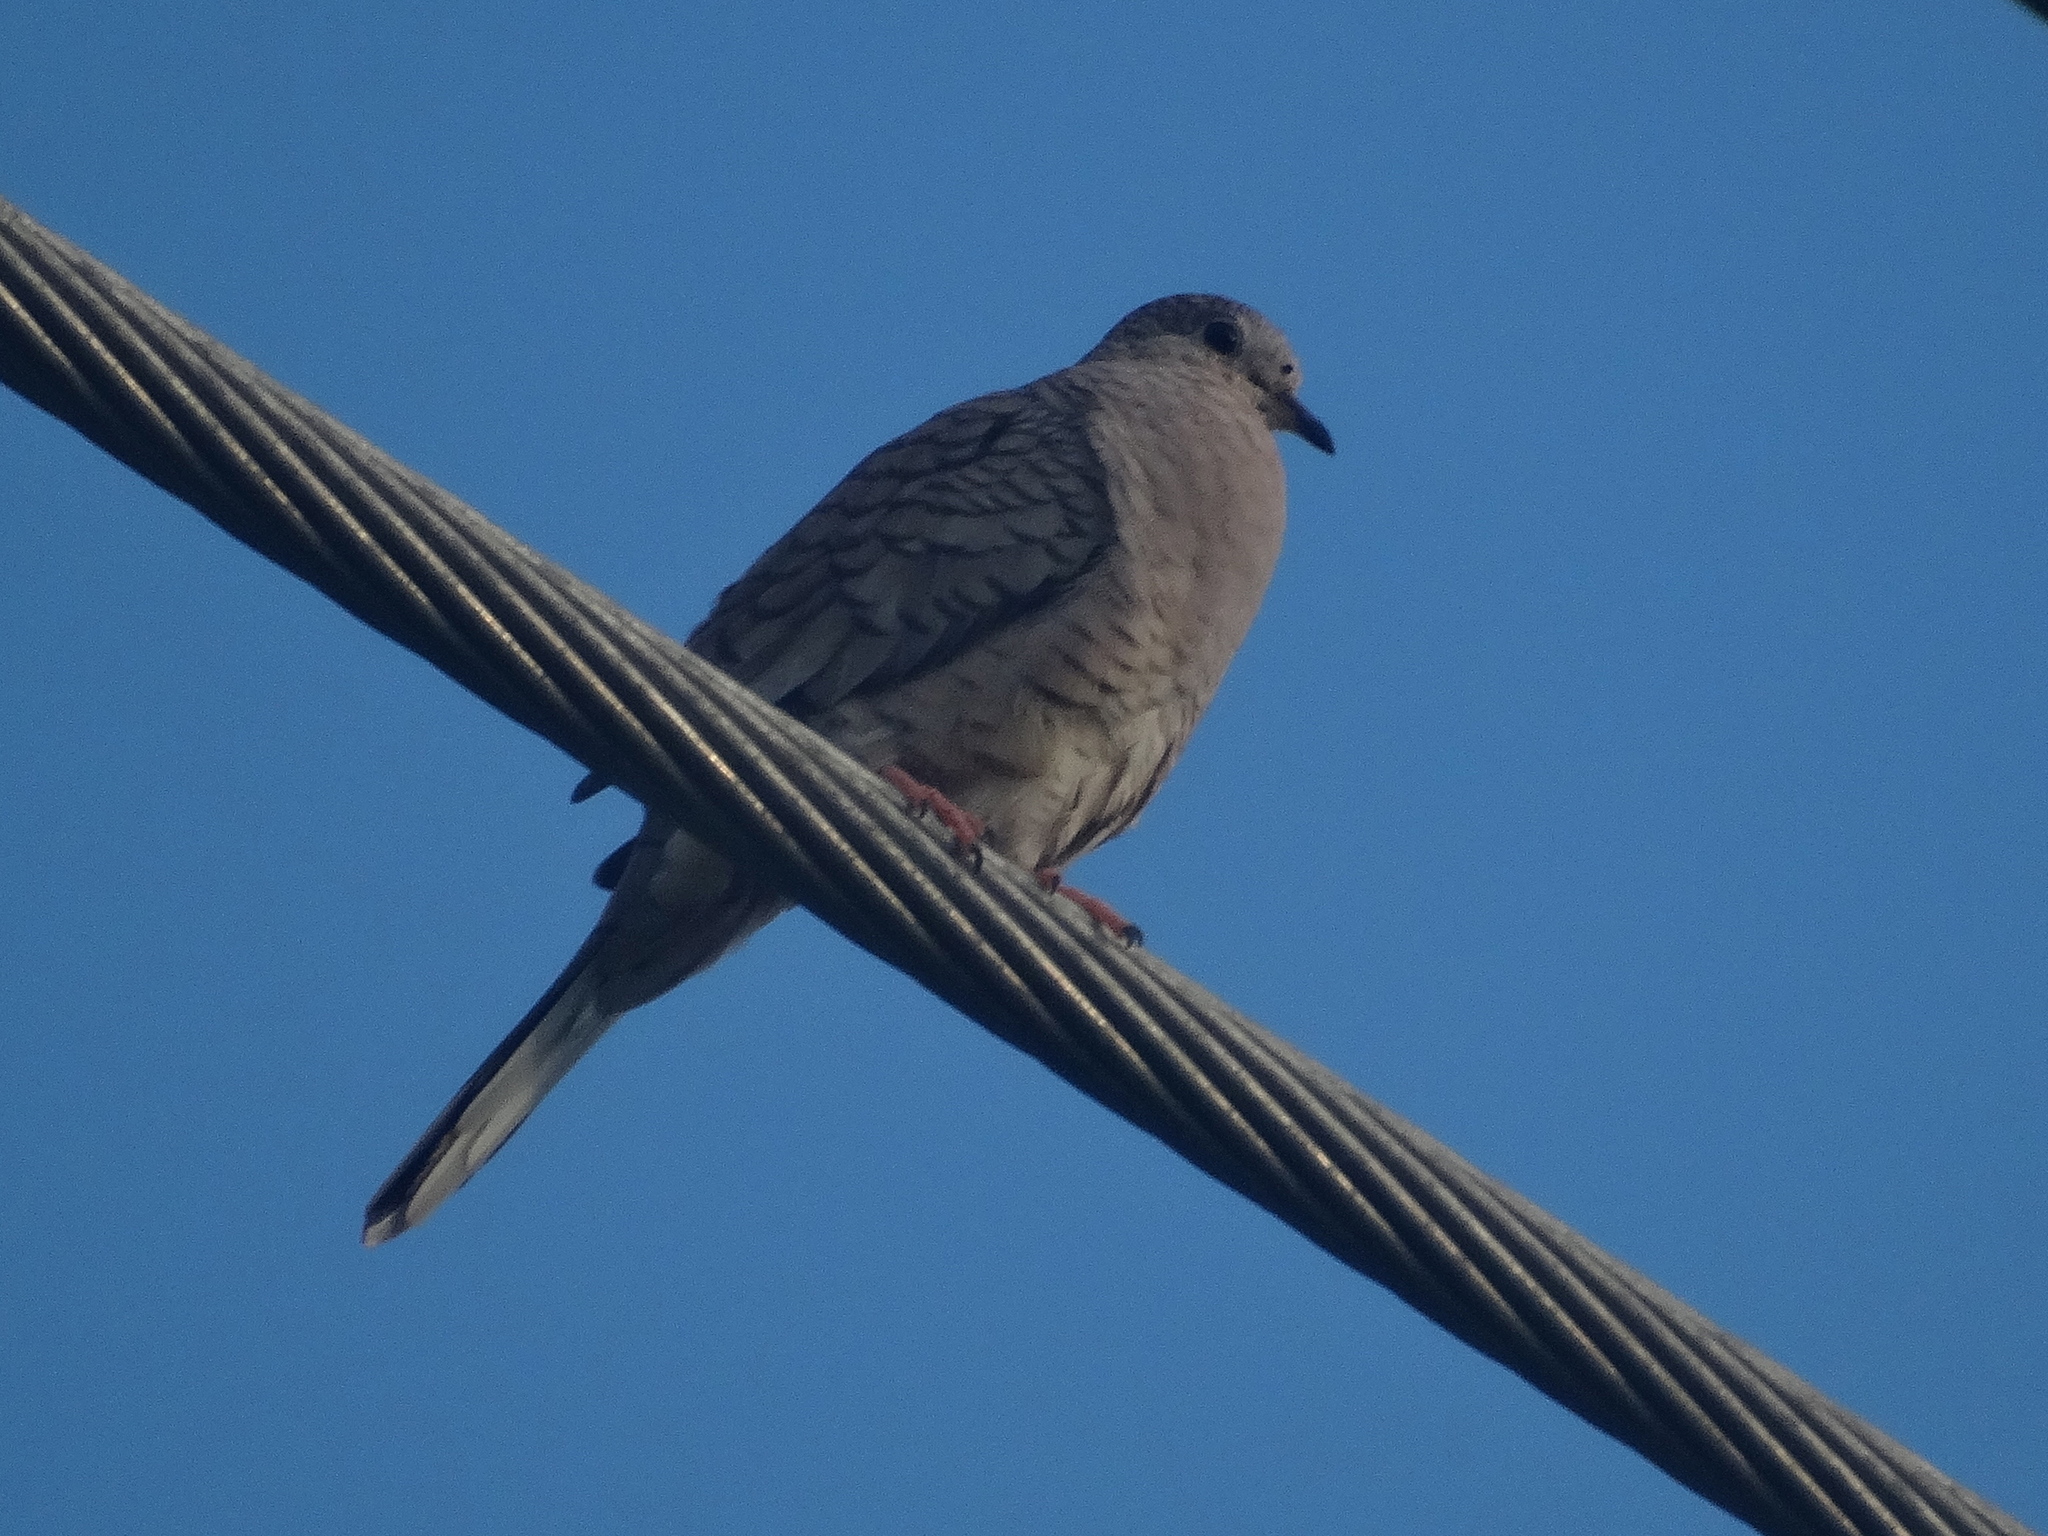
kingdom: Animalia
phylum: Chordata
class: Aves
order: Columbiformes
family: Columbidae
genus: Columbina
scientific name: Columbina inca
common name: Inca dove
